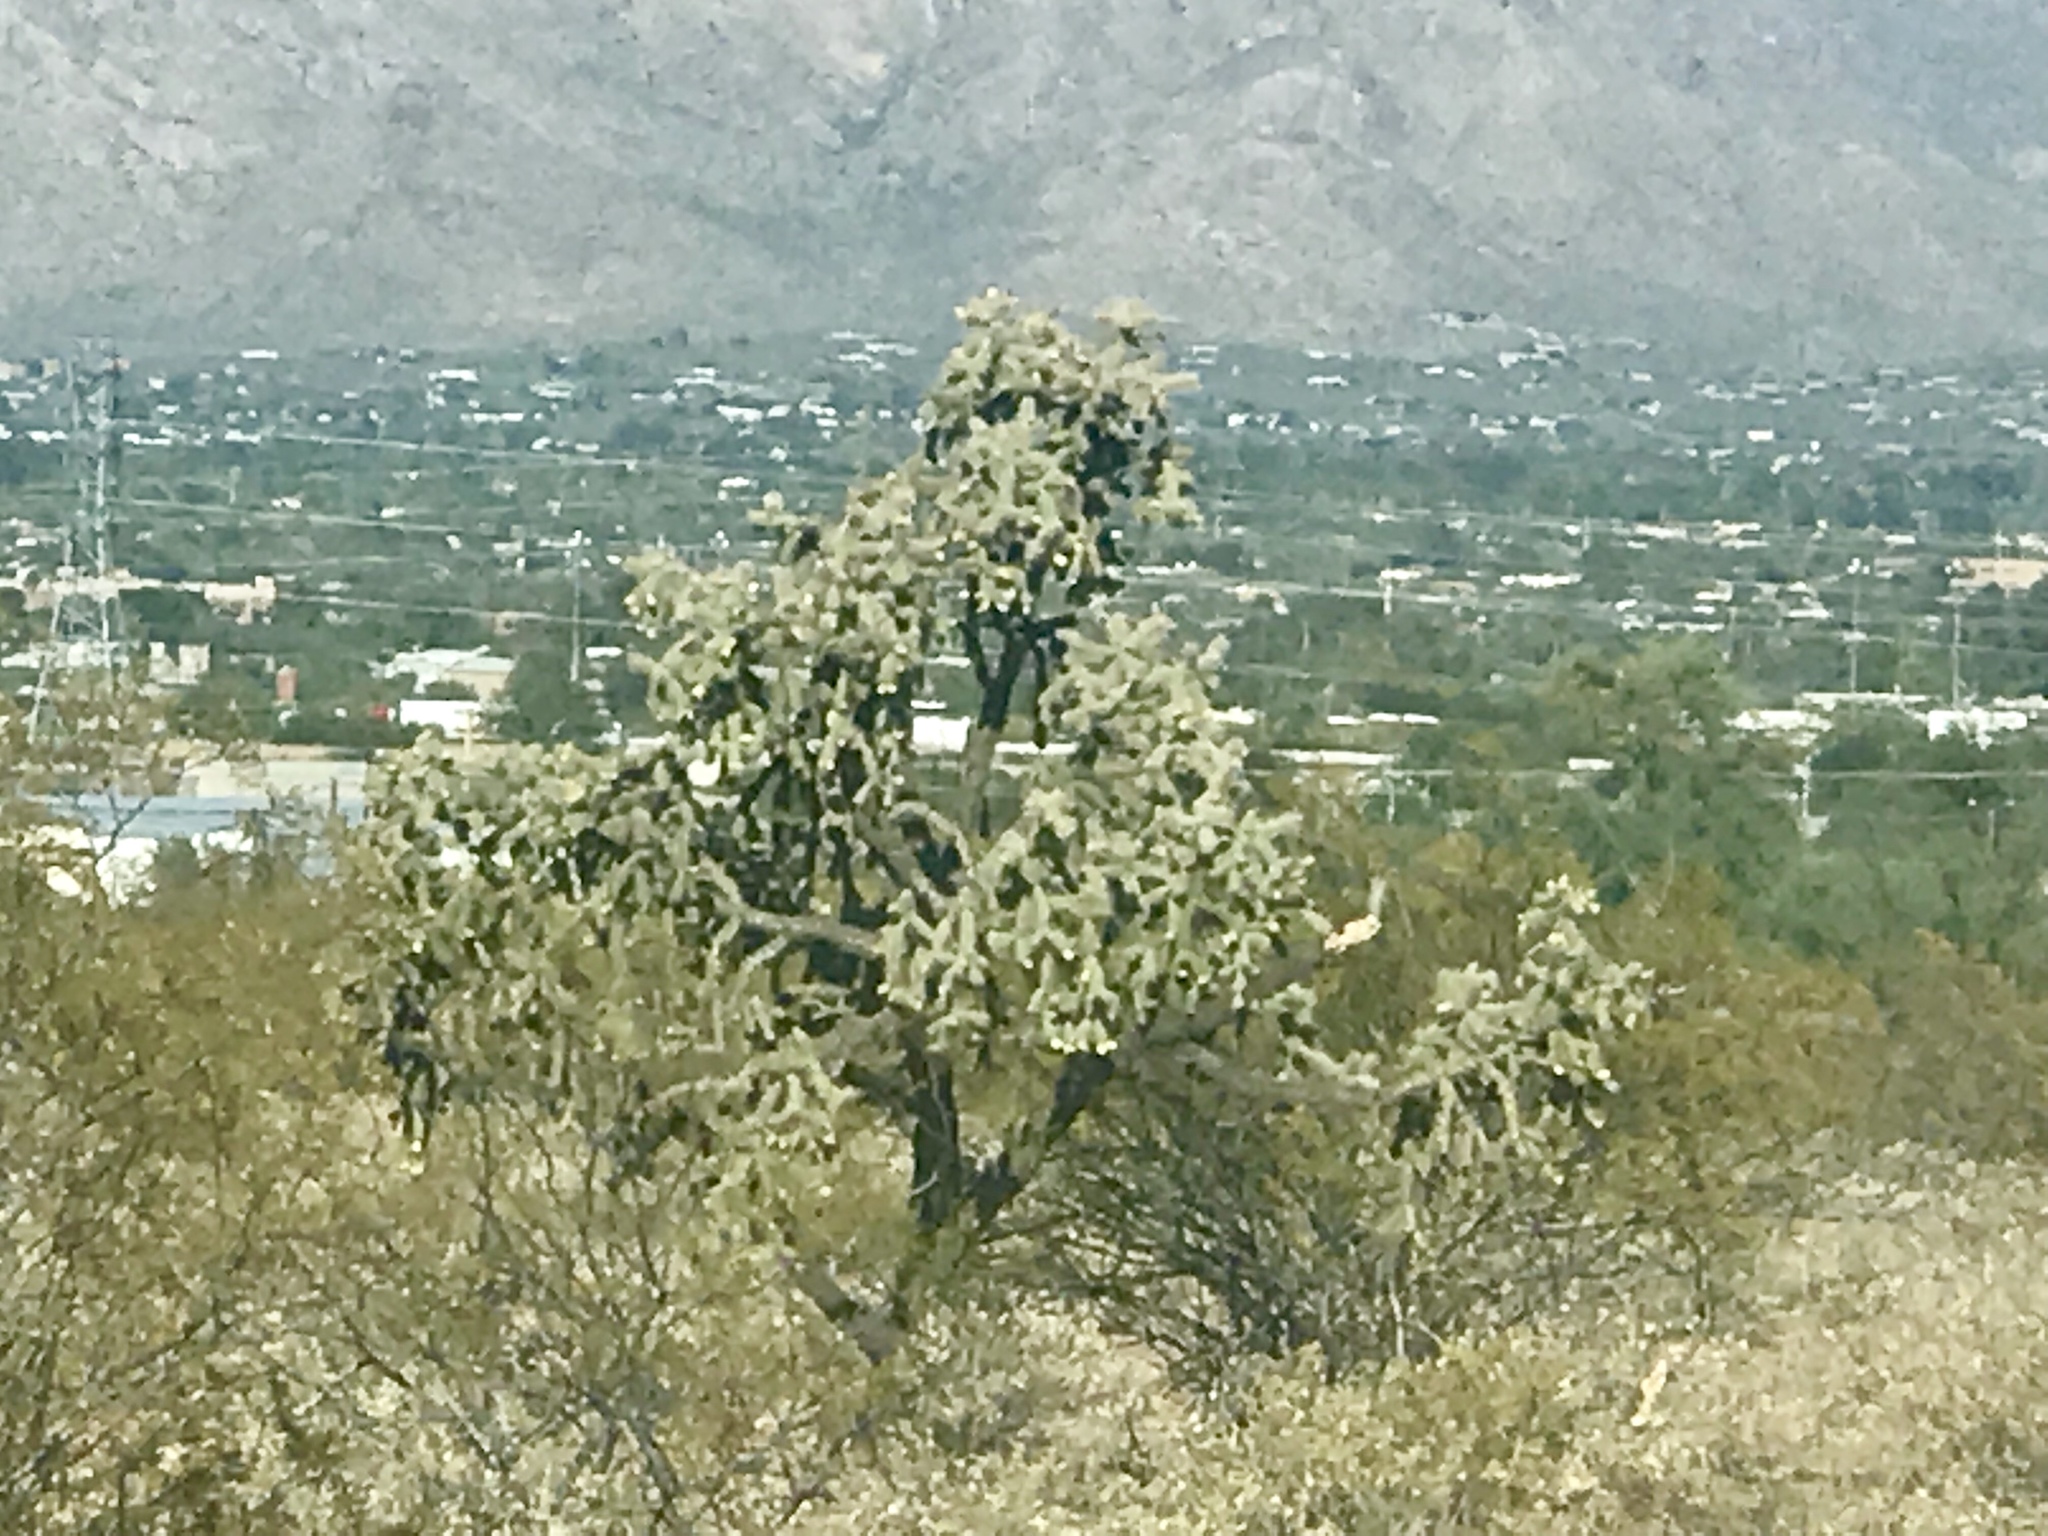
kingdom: Plantae
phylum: Tracheophyta
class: Magnoliopsida
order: Caryophyllales
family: Cactaceae
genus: Cylindropuntia
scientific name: Cylindropuntia fulgida
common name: Jumping cholla
